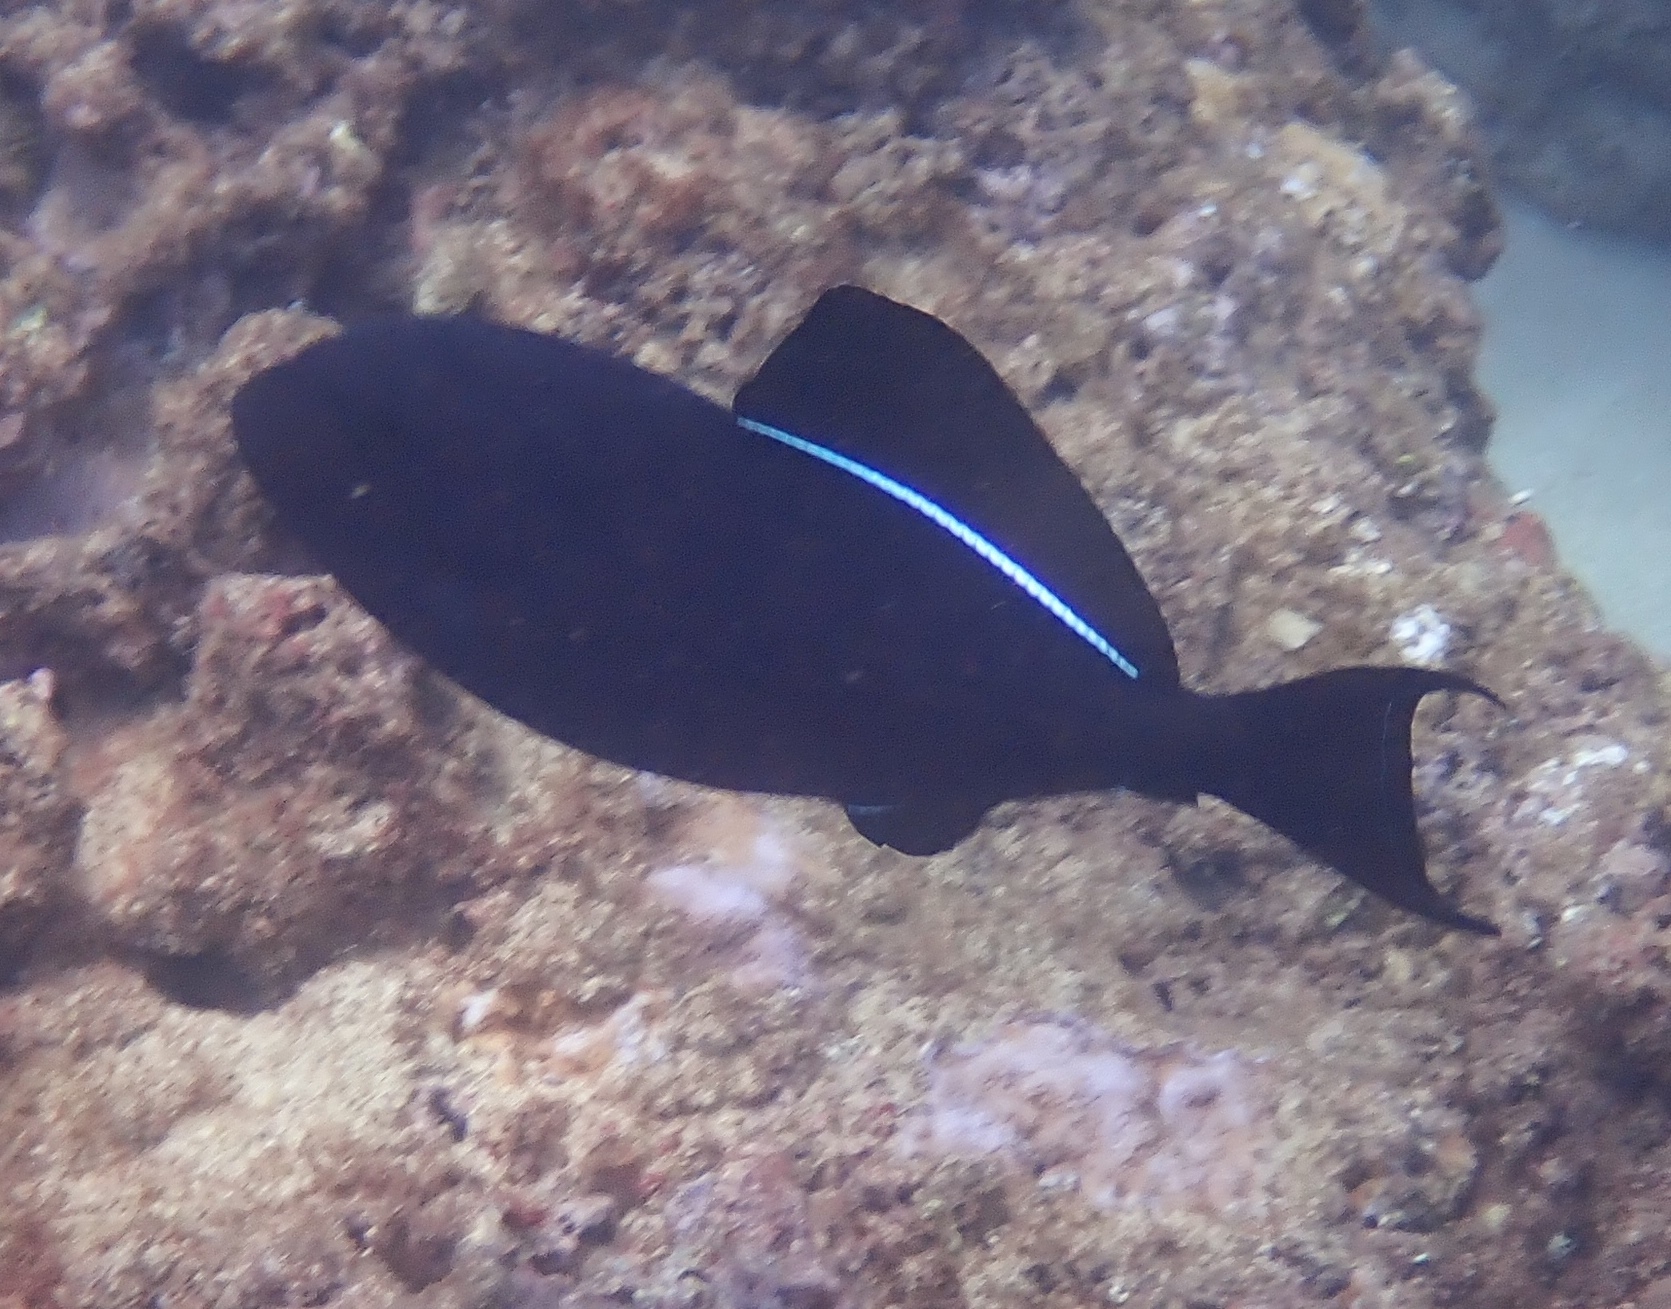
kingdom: Animalia
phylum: Chordata
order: Tetraodontiformes
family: Balistidae
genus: Melichthys
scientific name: Melichthys niger
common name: Black durgon
